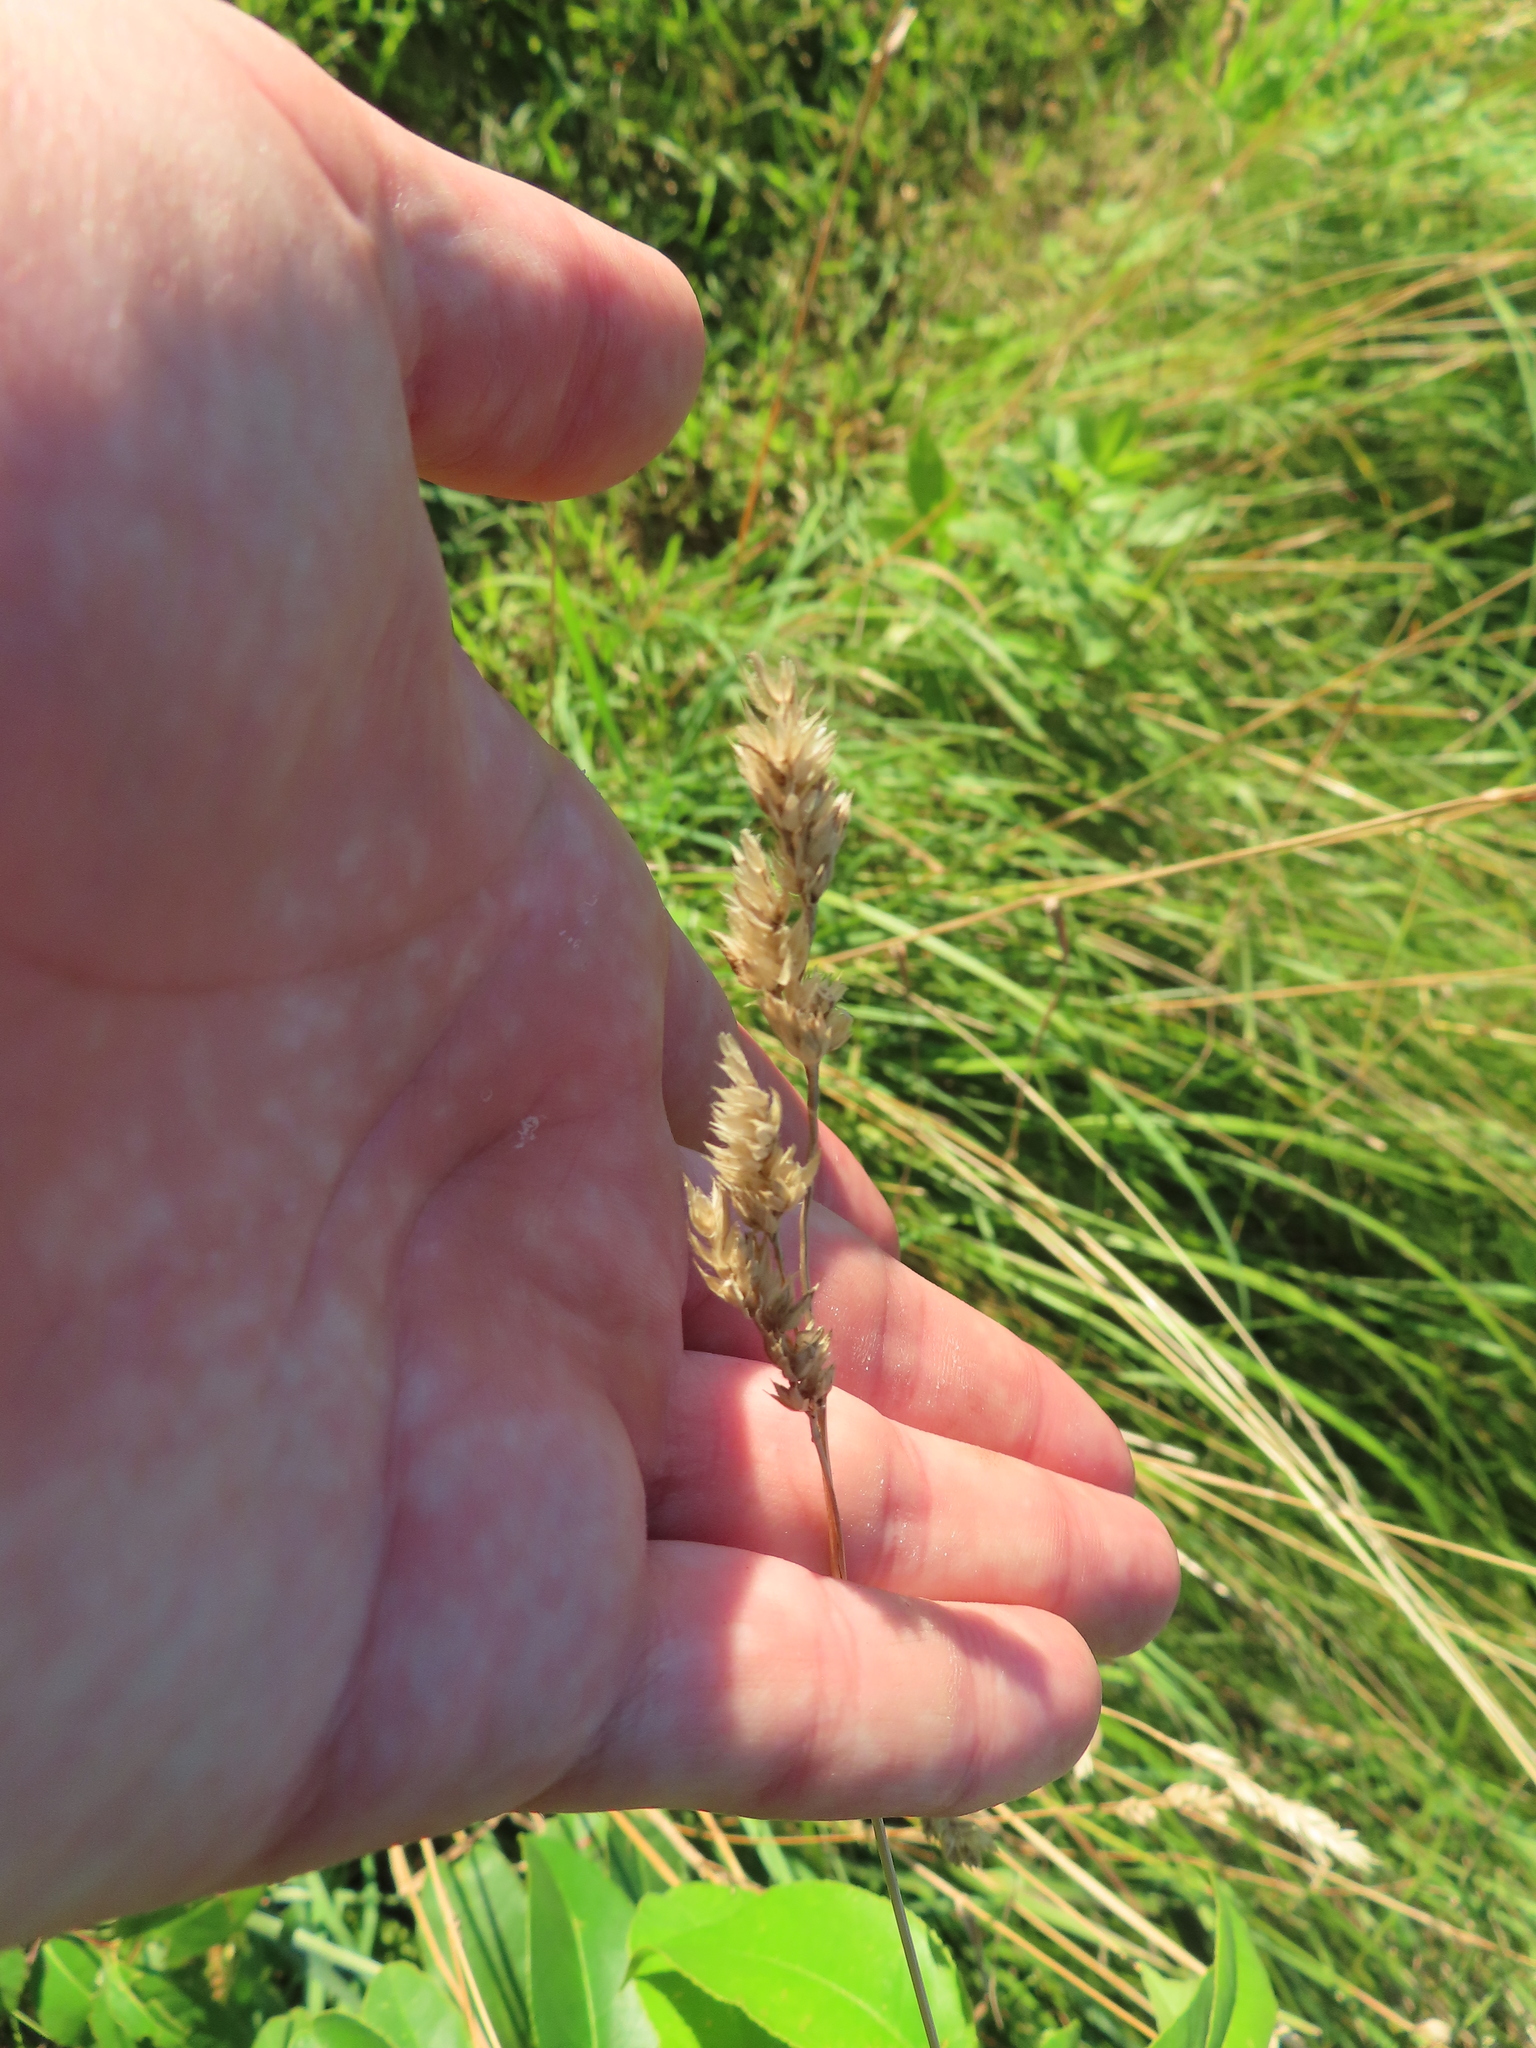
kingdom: Plantae
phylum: Tracheophyta
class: Liliopsida
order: Poales
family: Poaceae
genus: Dactylis
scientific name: Dactylis glomerata
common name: Orchardgrass
